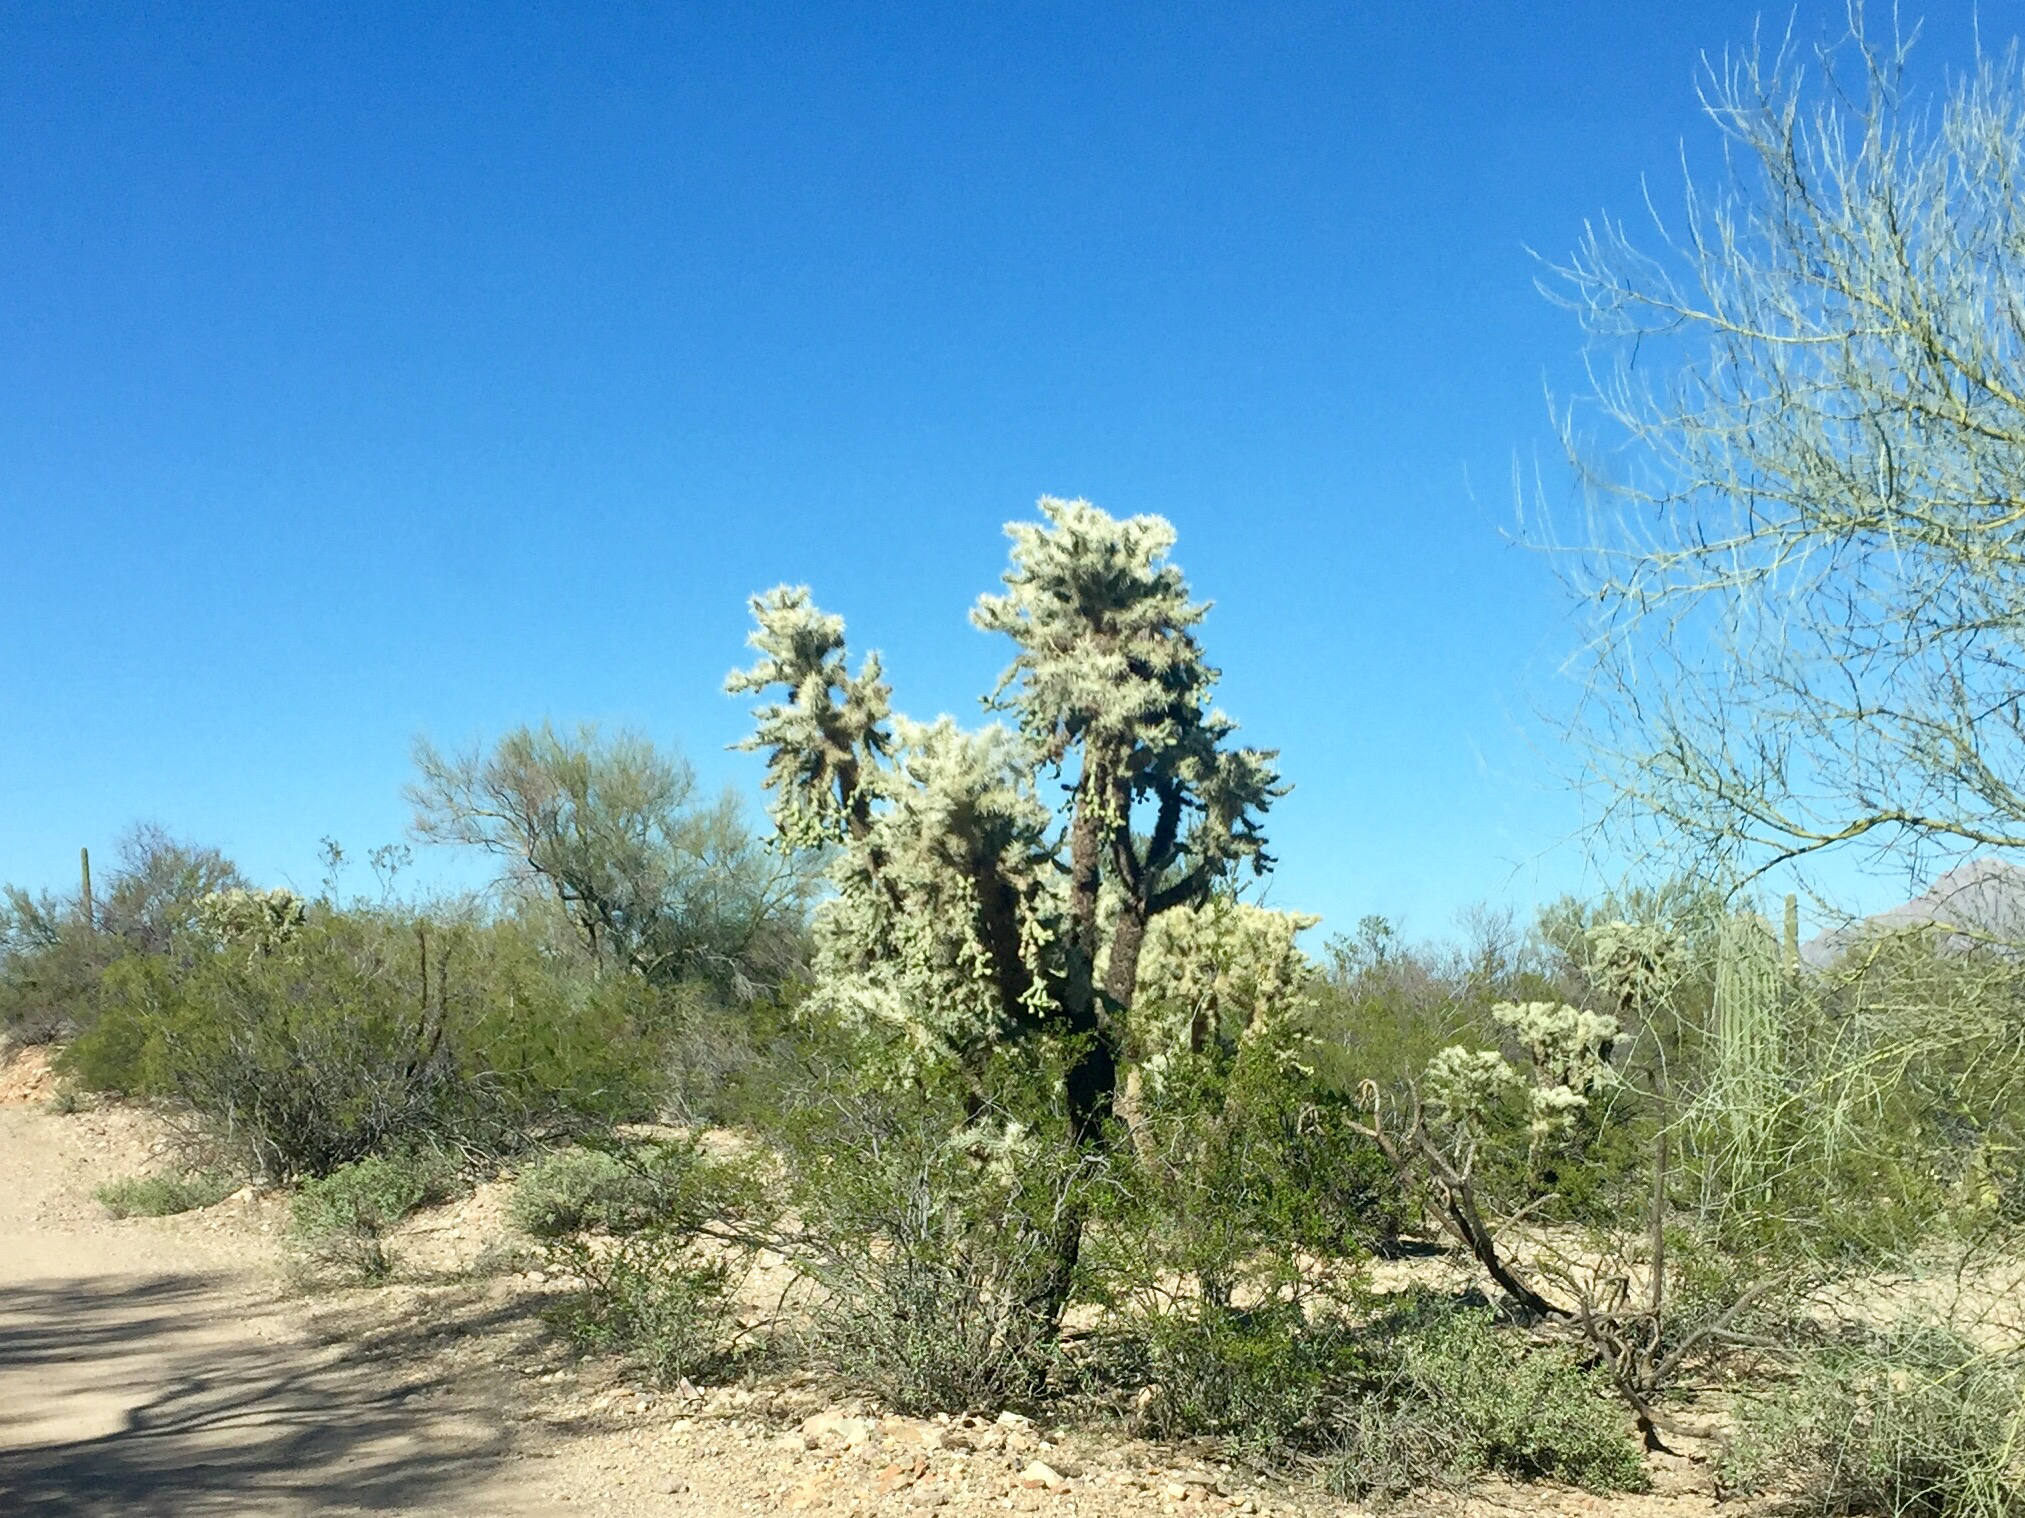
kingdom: Plantae
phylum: Tracheophyta
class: Magnoliopsida
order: Caryophyllales
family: Cactaceae
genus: Cylindropuntia
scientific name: Cylindropuntia fulgida
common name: Jumping cholla
